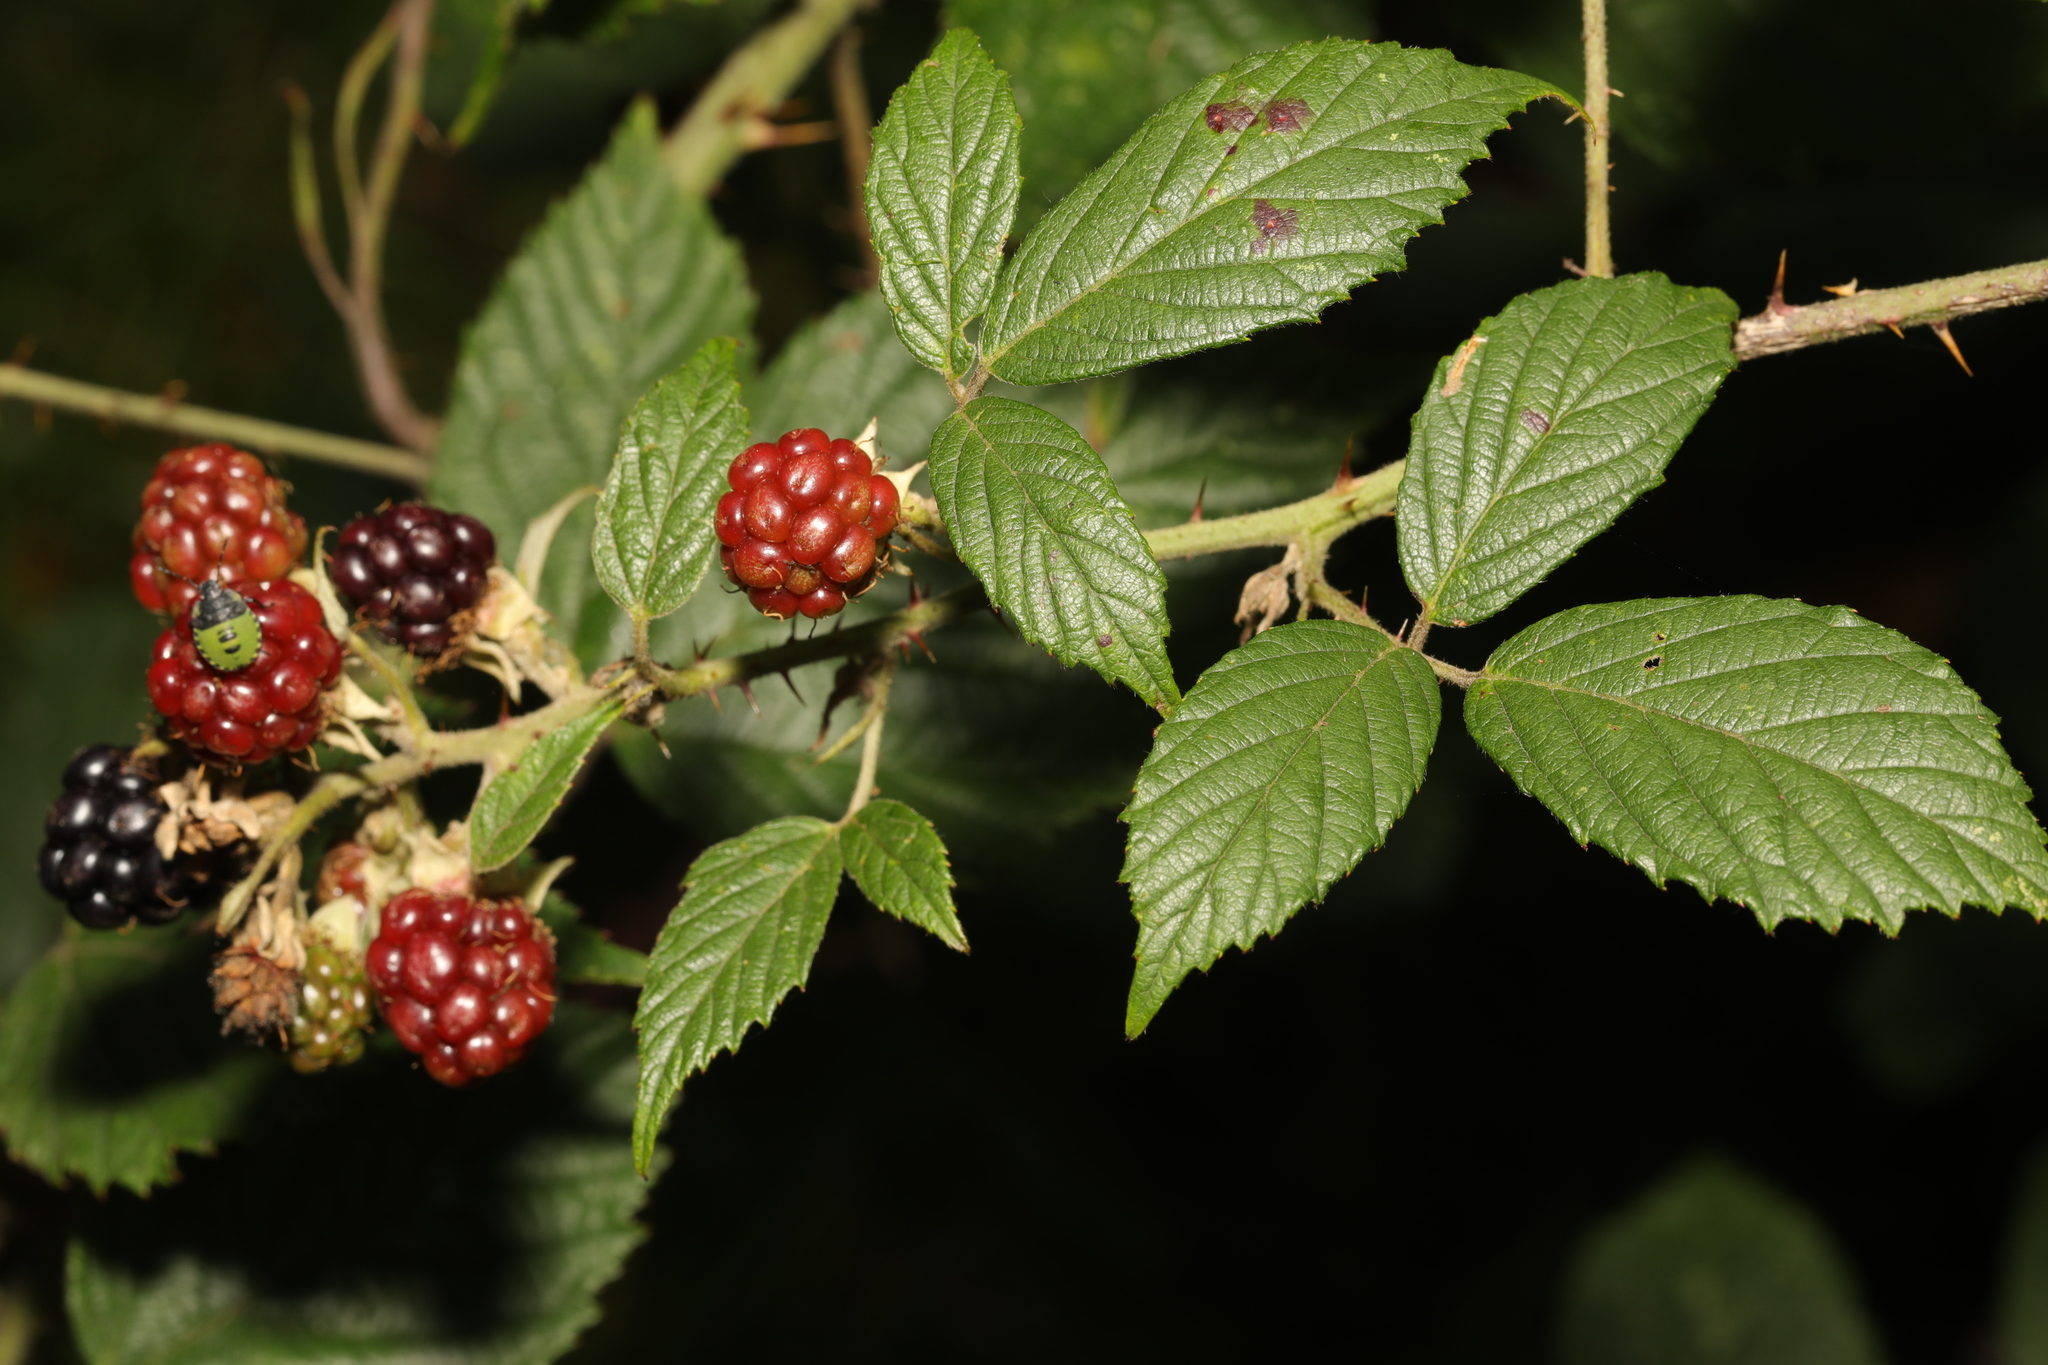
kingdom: Plantae
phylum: Tracheophyta
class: Magnoliopsida
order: Rosales
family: Rosaceae
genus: Rubus
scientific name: Rubus cissburiensis
